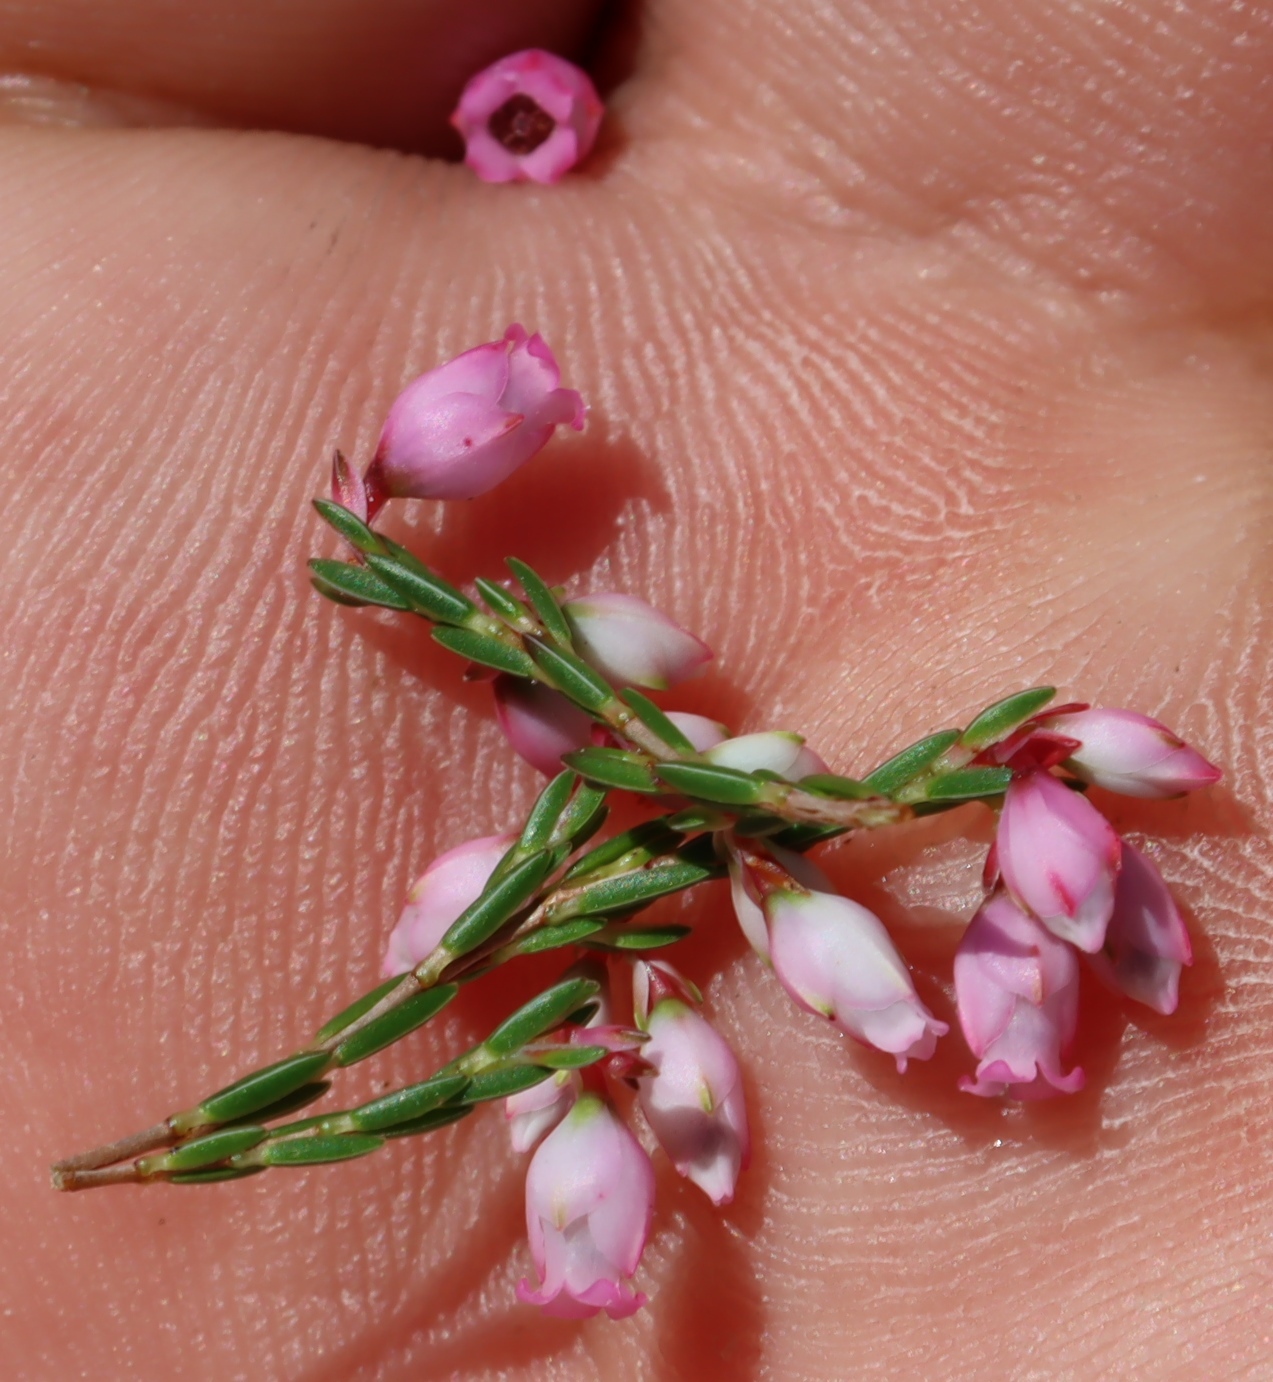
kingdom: Plantae
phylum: Tracheophyta
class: Magnoliopsida
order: Ericales
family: Ericaceae
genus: Erica
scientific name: Erica tenuifolia
